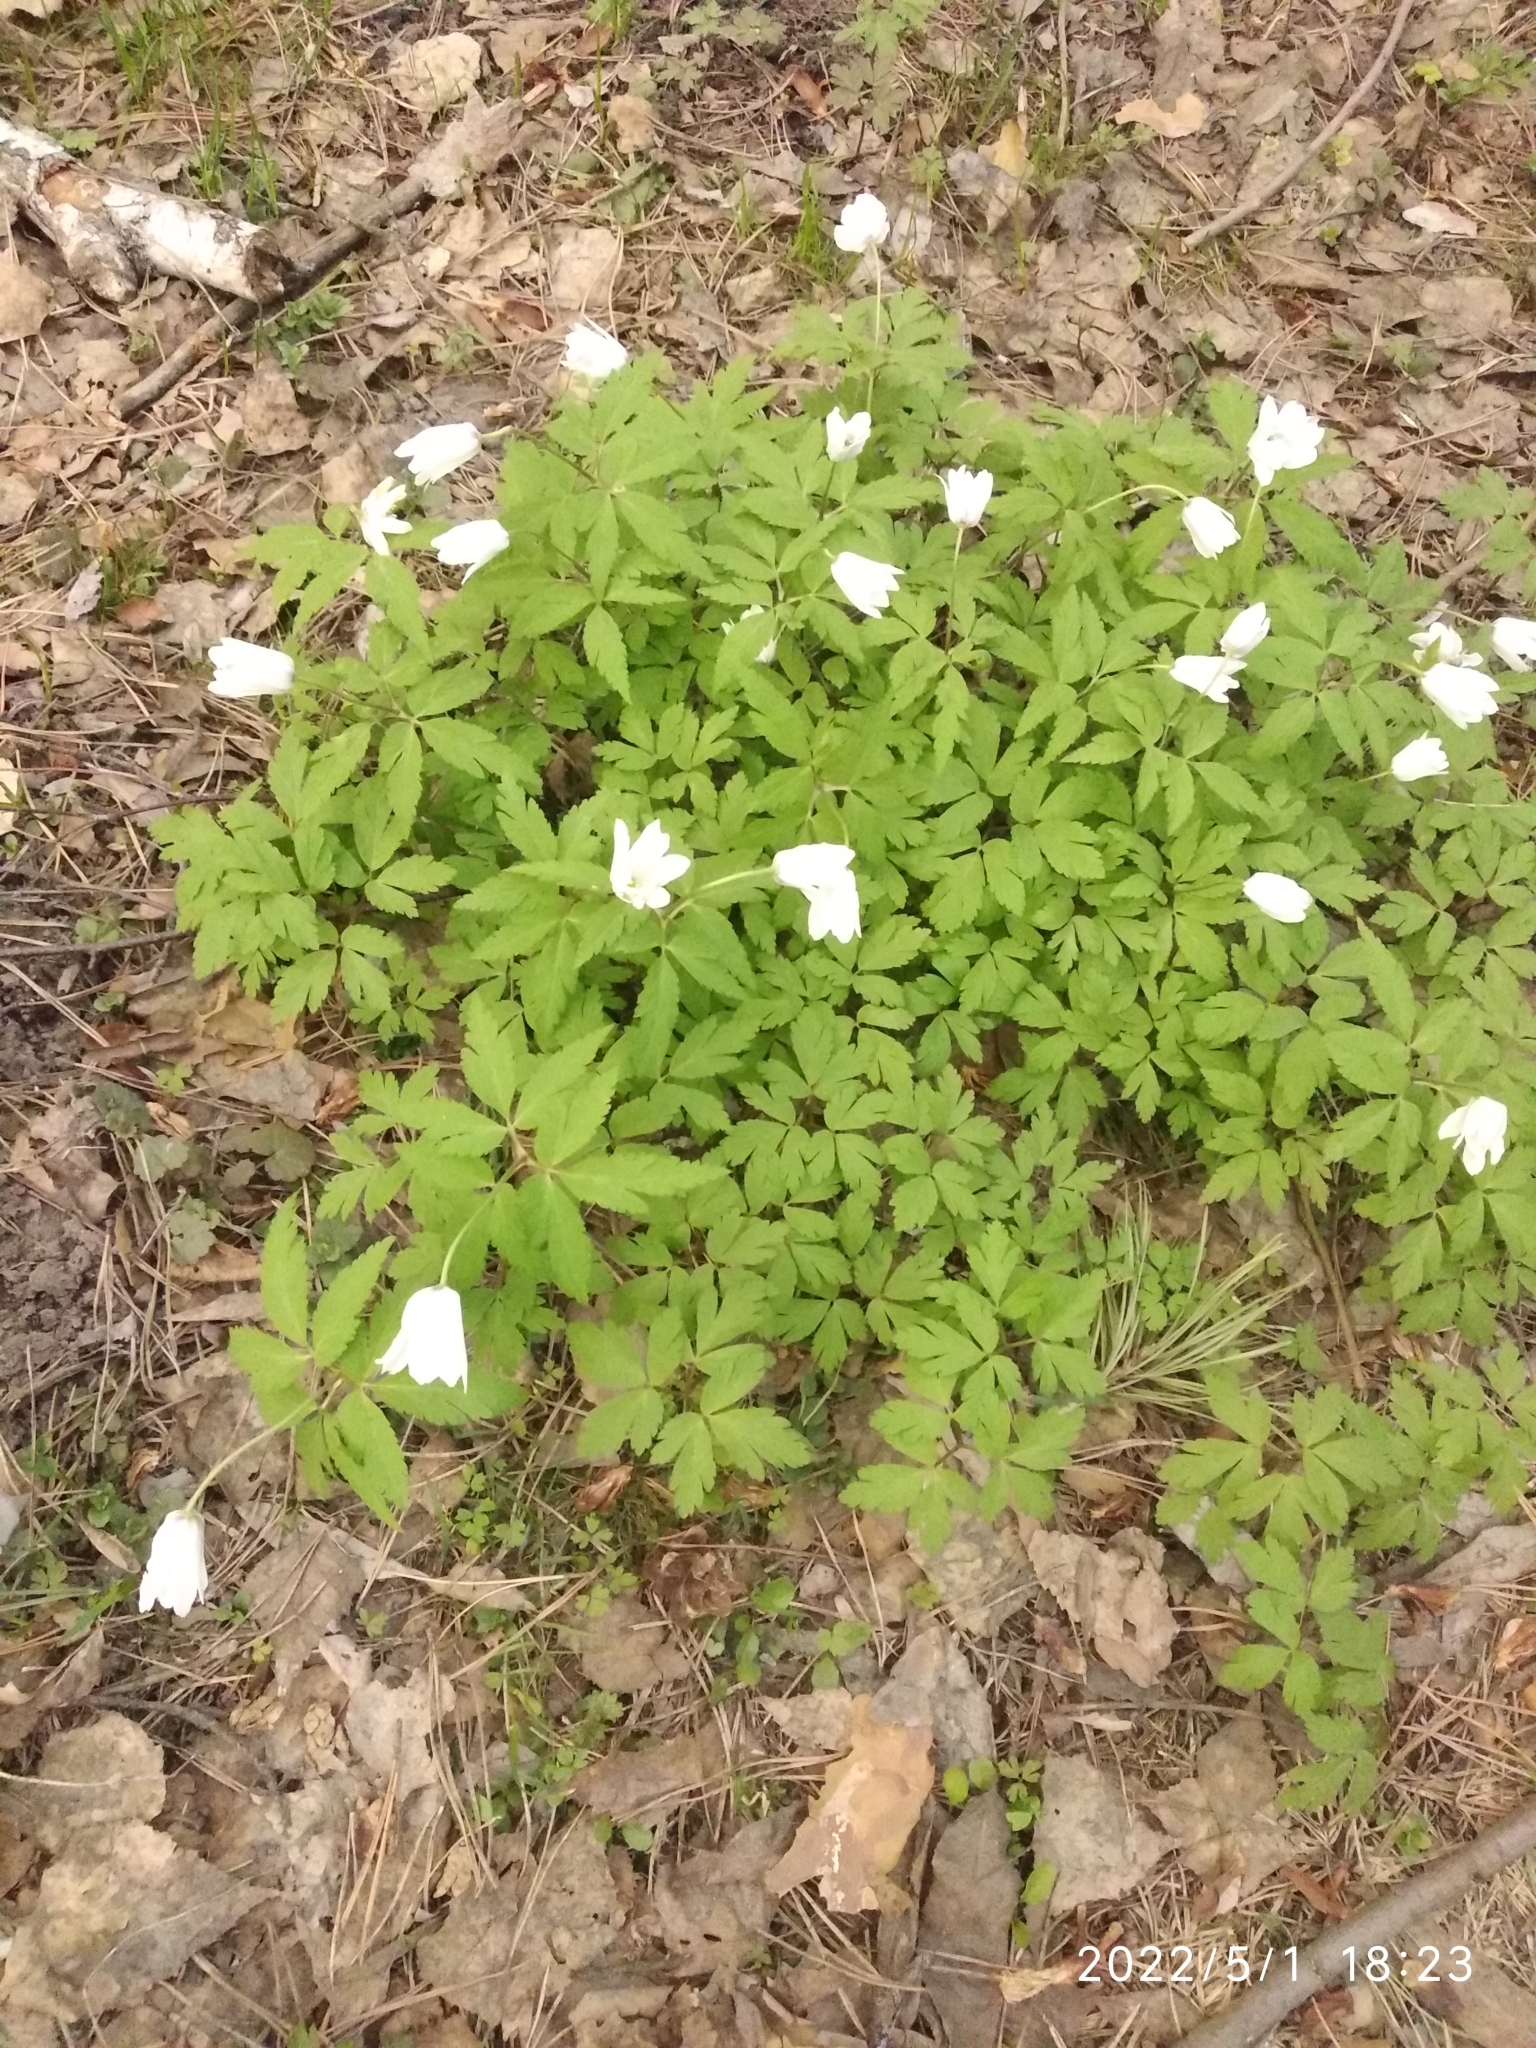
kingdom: Plantae
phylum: Tracheophyta
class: Magnoliopsida
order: Ranunculales
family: Ranunculaceae
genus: Anemone
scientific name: Anemone altaica
